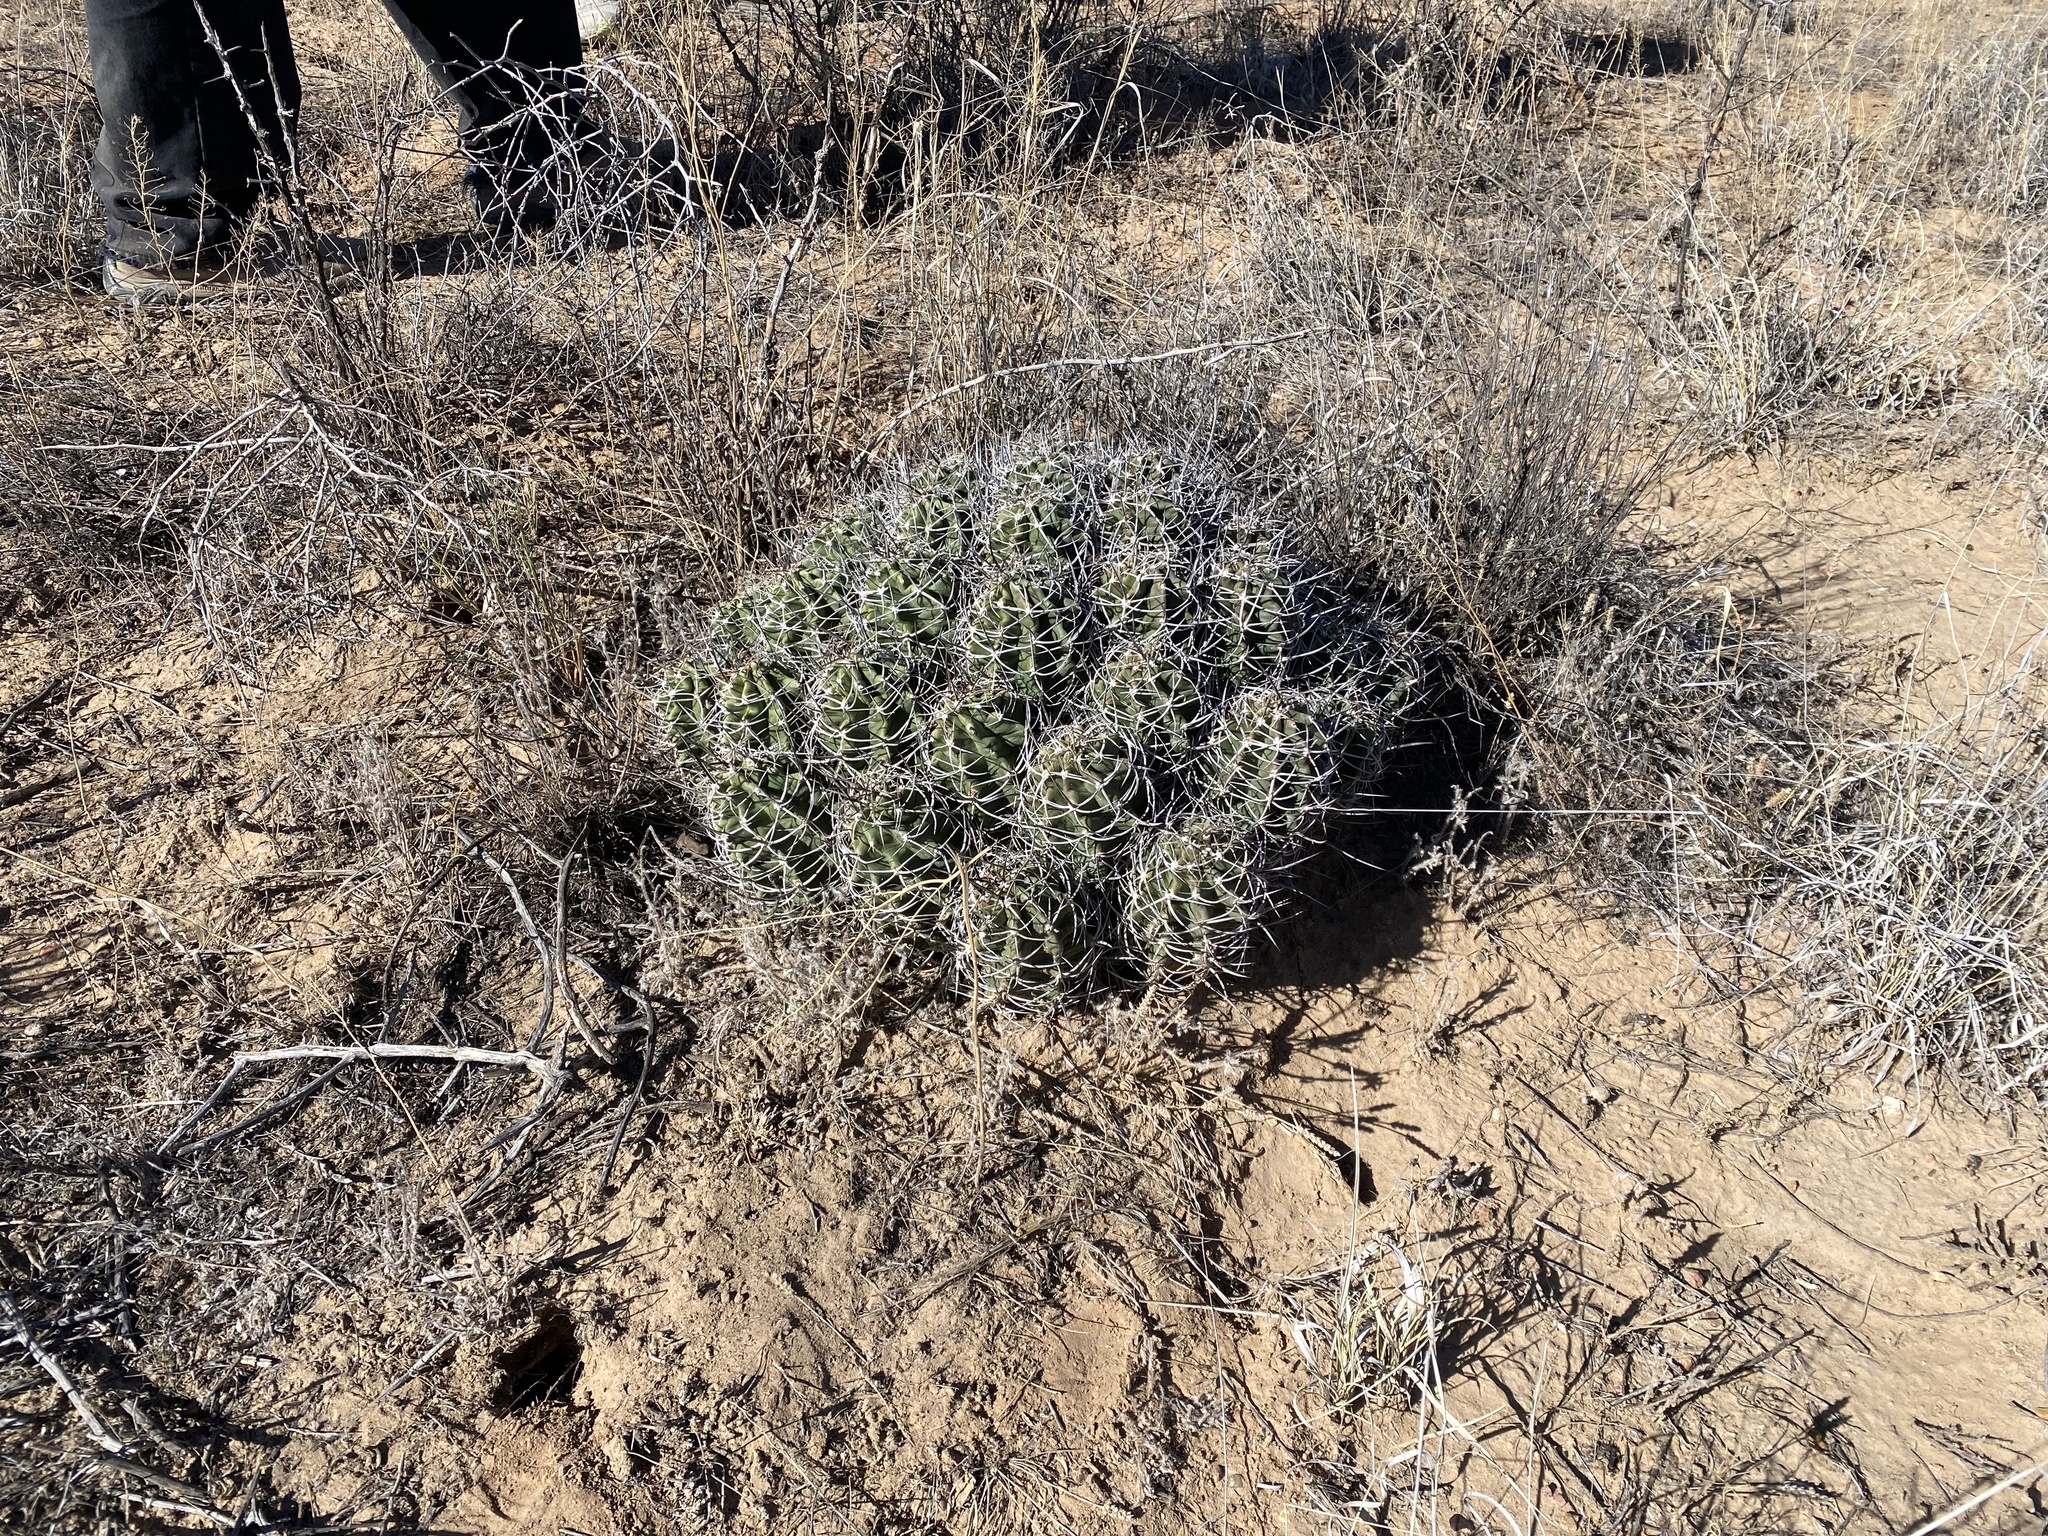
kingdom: Plantae
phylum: Tracheophyta
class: Magnoliopsida
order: Caryophyllales
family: Cactaceae
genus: Echinocereus
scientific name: Echinocereus triglochidiatus
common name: Claretcup hedgehog
